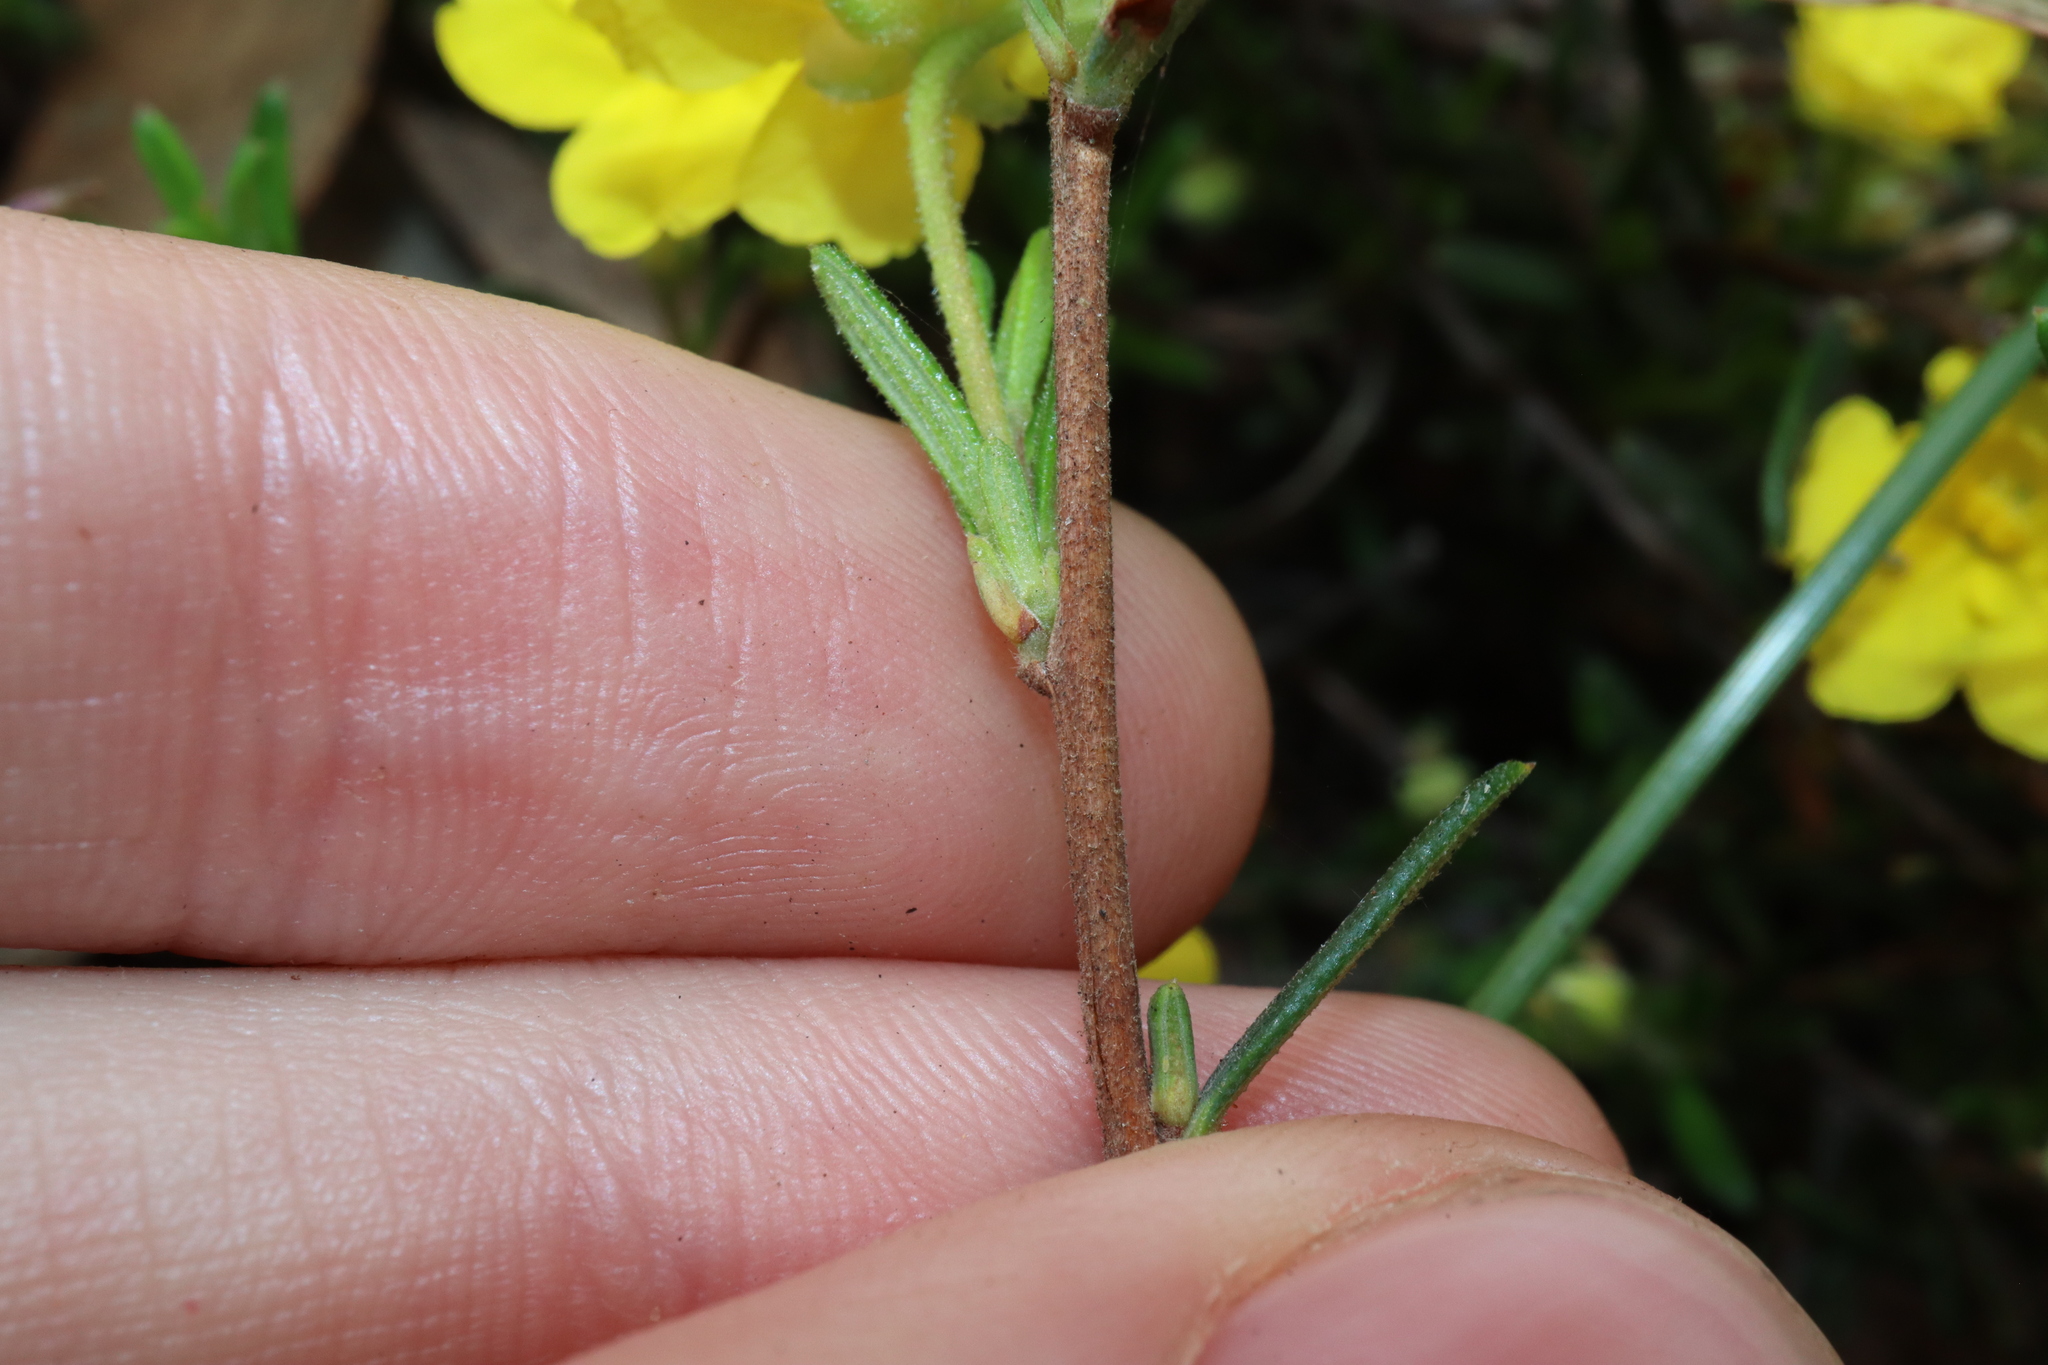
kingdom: Plantae
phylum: Tracheophyta
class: Magnoliopsida
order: Dilleniales
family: Dilleniaceae
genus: Hibbertia
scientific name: Hibbertia prolata
